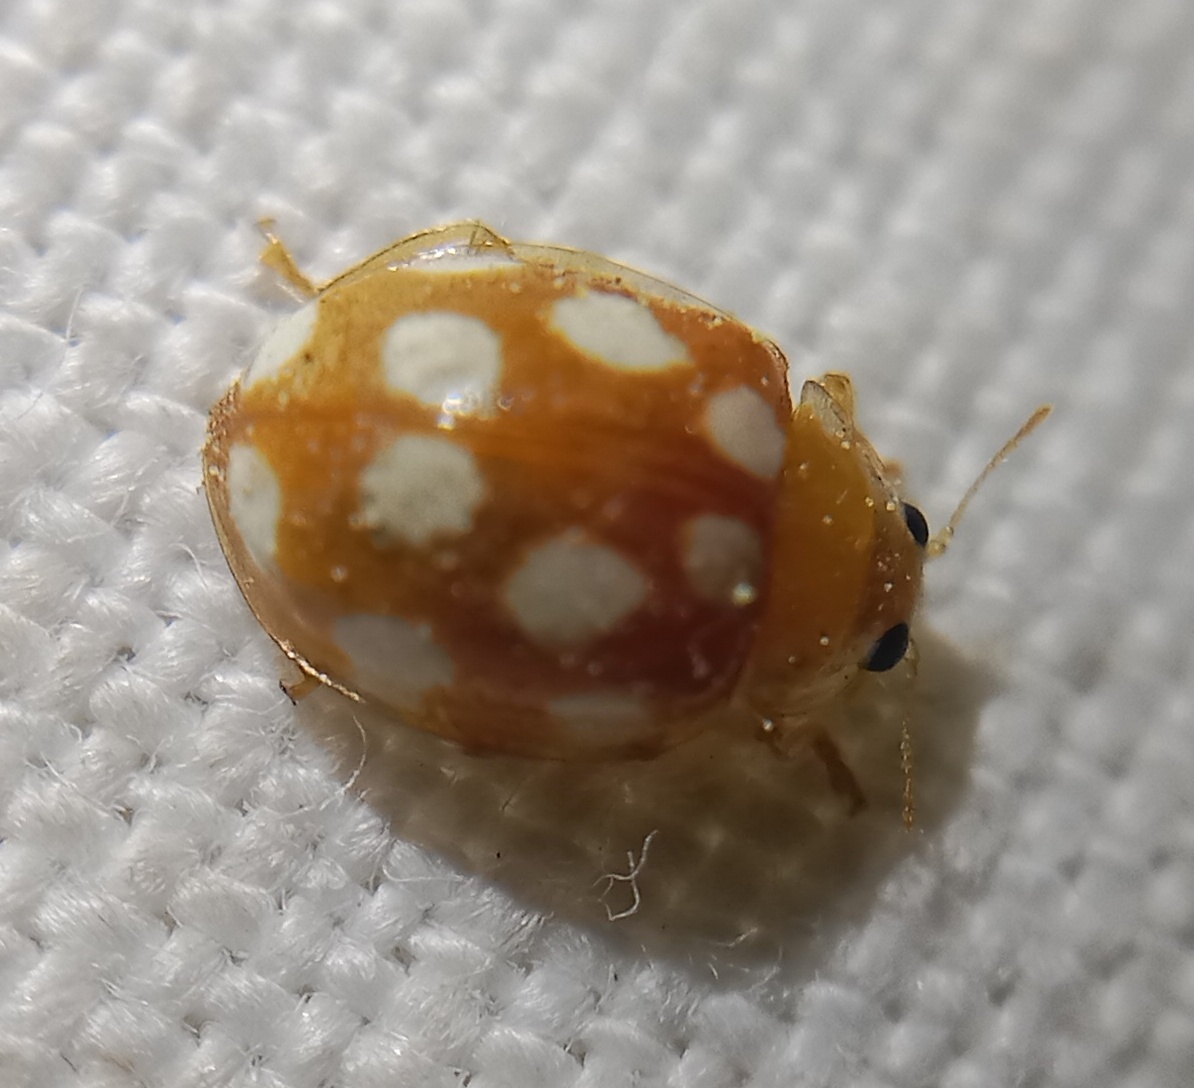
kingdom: Animalia
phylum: Arthropoda
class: Insecta
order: Coleoptera
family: Coccinellidae
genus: Vibidia
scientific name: Vibidia duodecimguttata
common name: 12-spot ladybird
